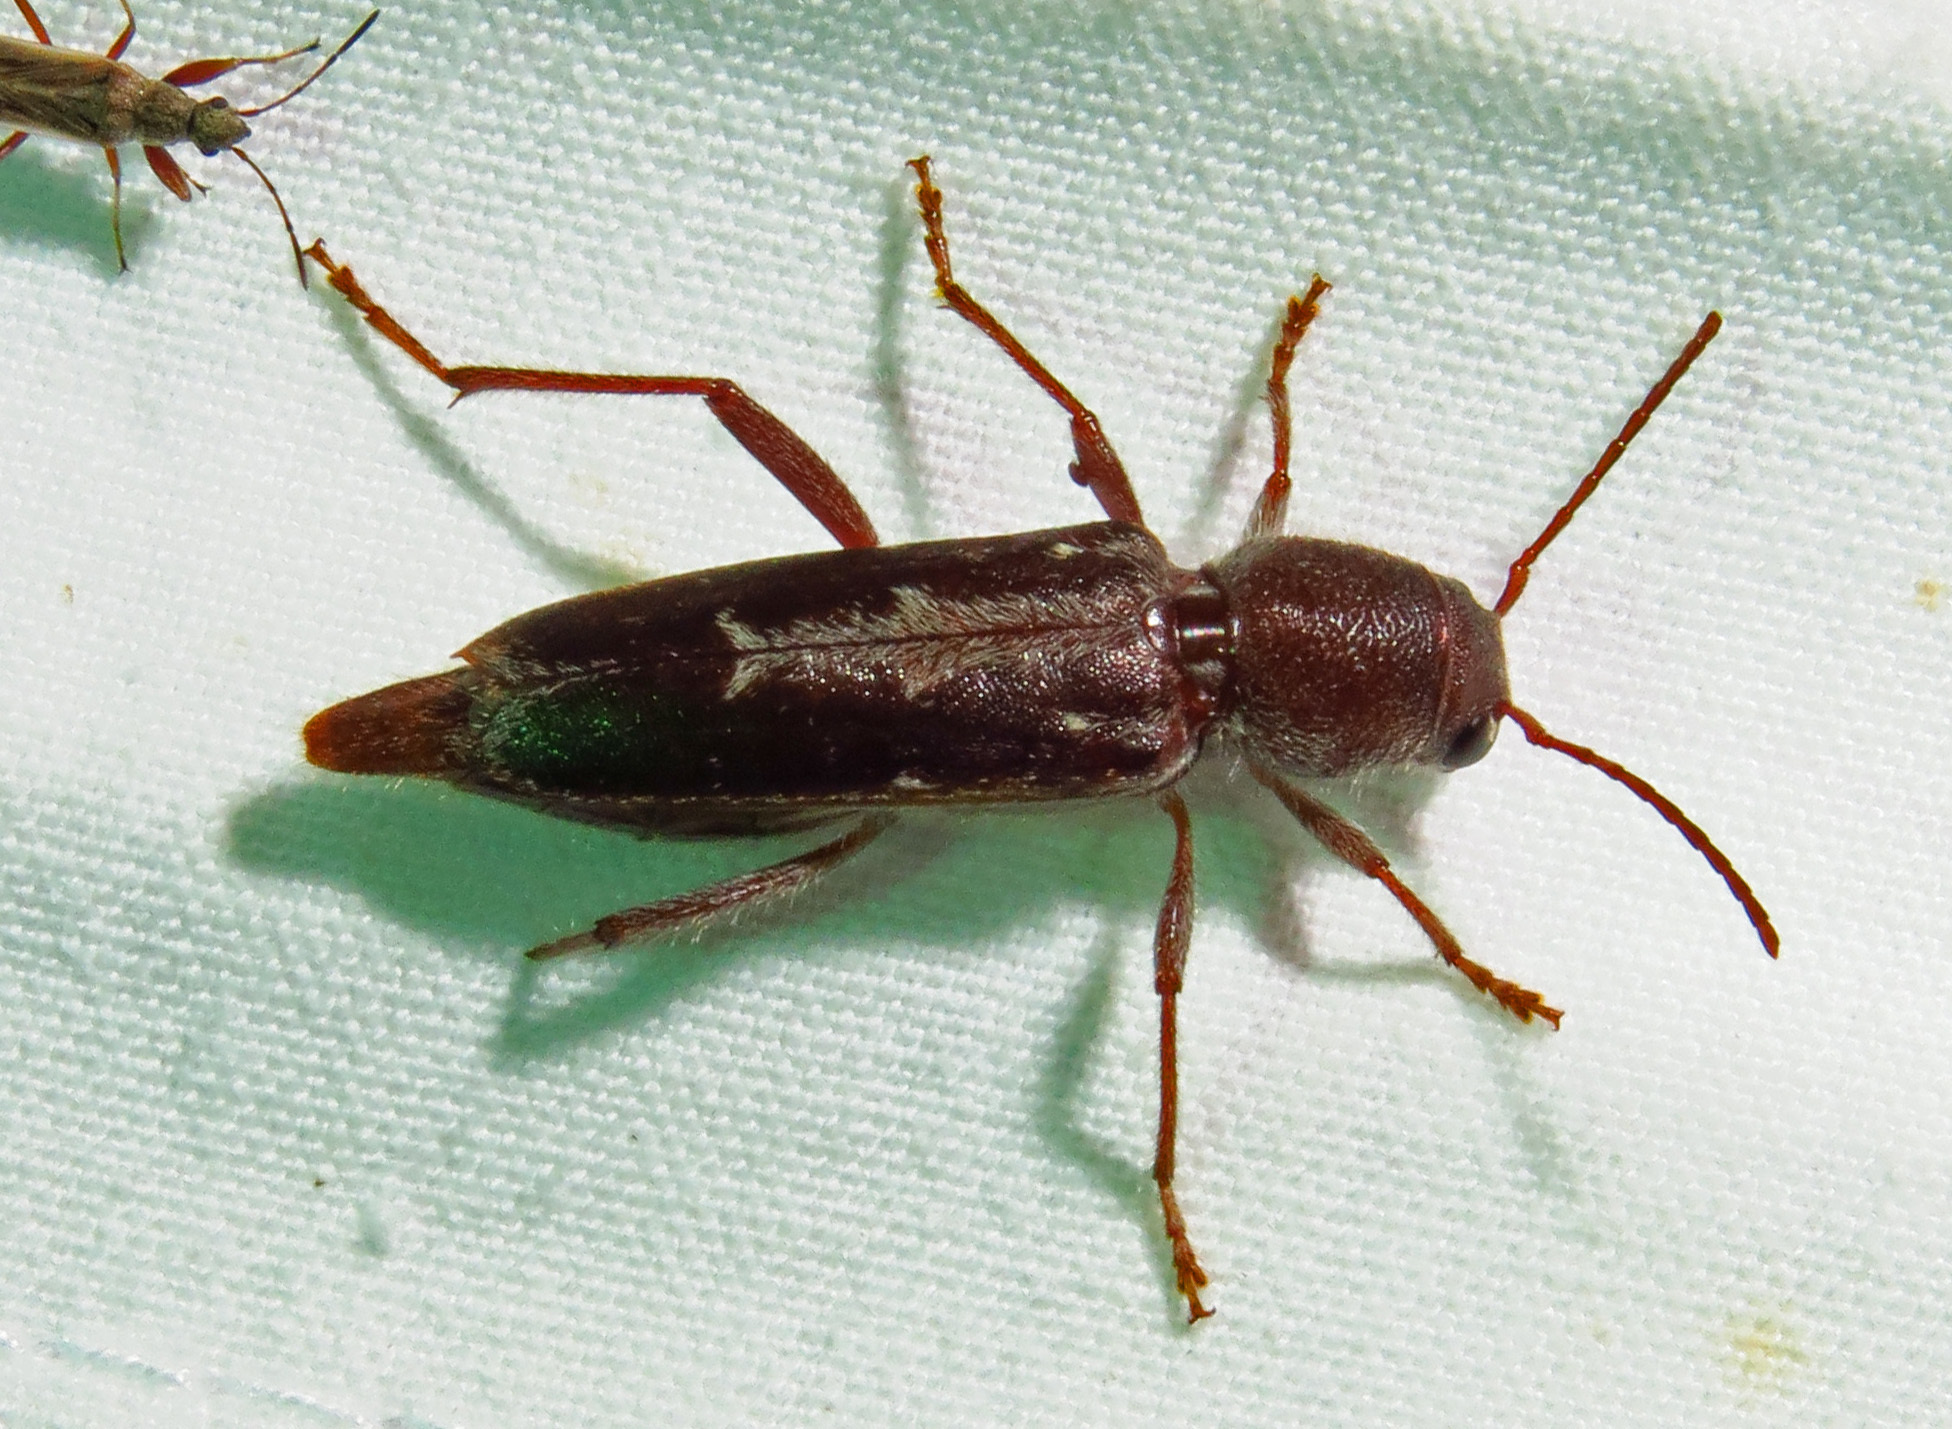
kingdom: Animalia
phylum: Arthropoda
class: Insecta
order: Coleoptera
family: Cerambycidae
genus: Xylotrechus
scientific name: Xylotrechus sagittatus
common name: Arrowhead borer
